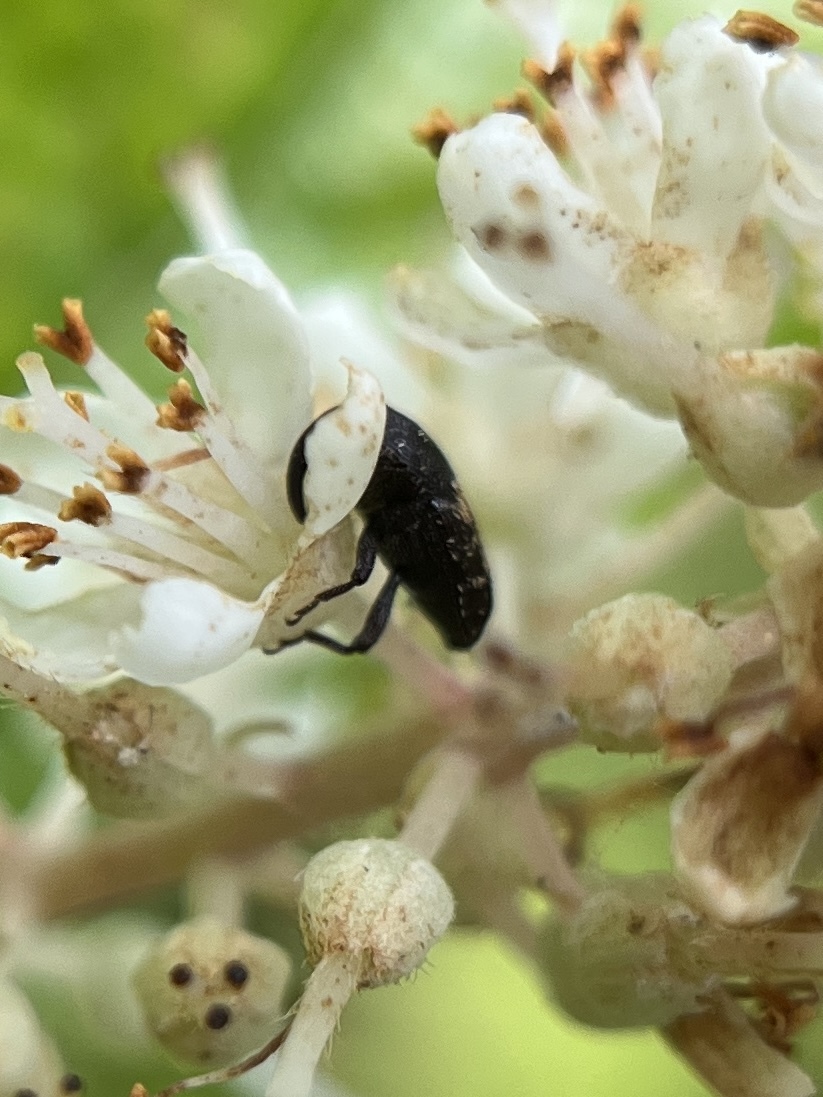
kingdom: Animalia
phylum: Arthropoda
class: Insecta
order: Coleoptera
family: Curculionidae
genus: Glyptobaris
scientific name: Glyptobaris lecontei
